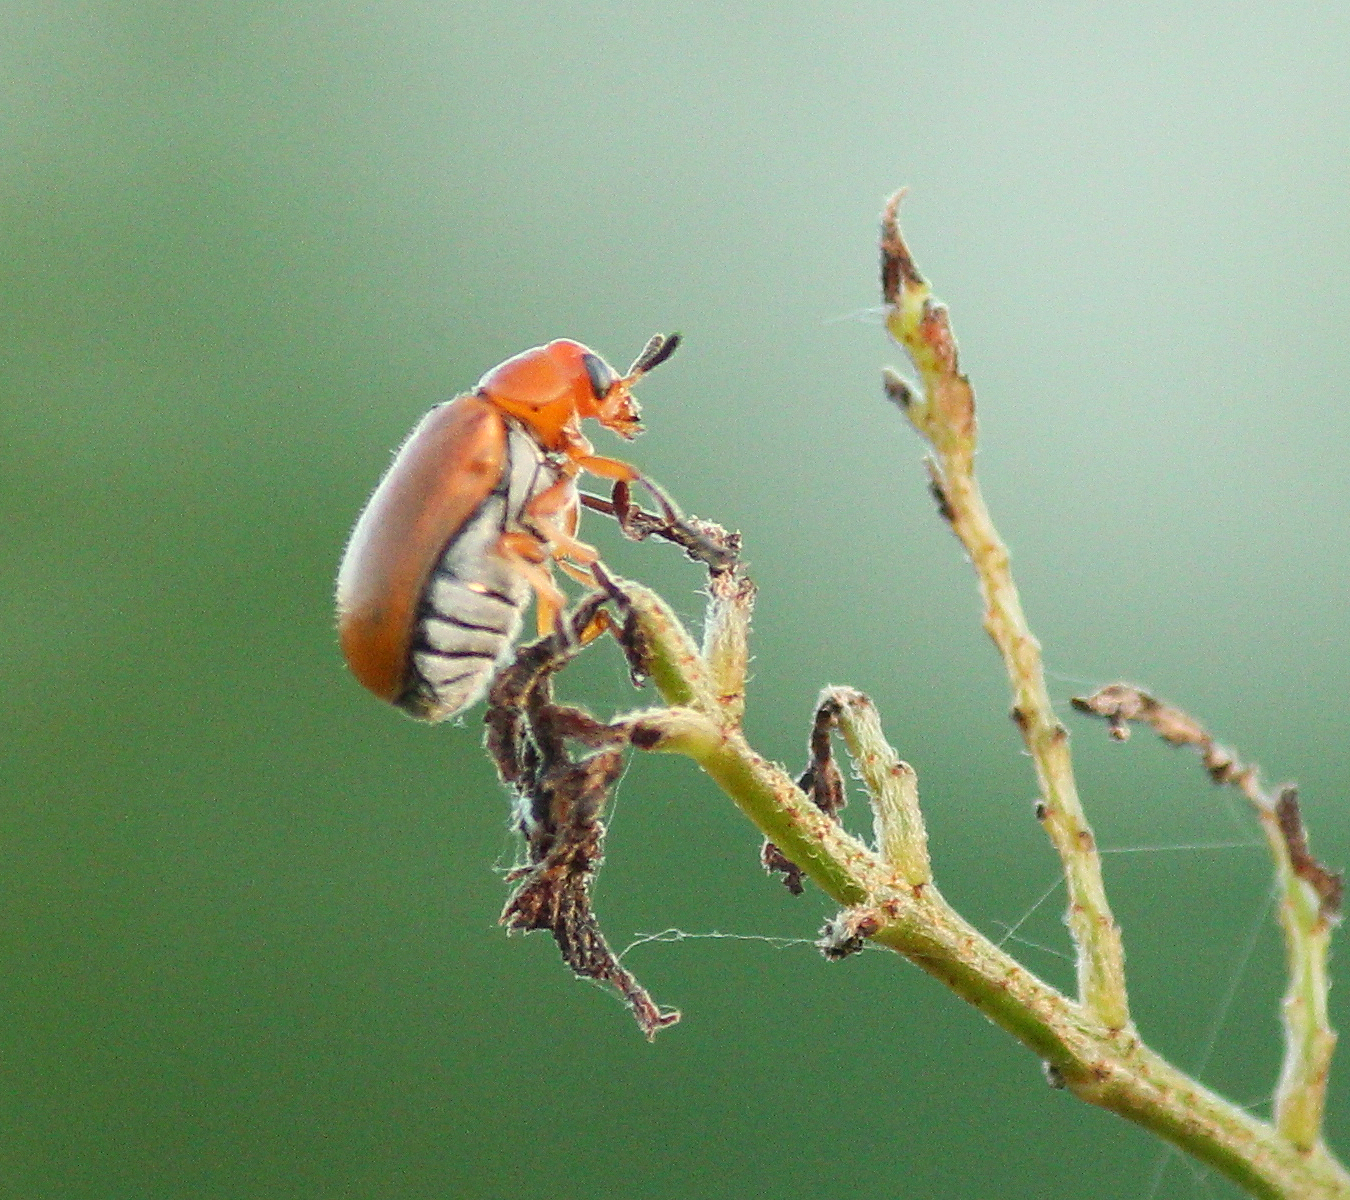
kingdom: Animalia
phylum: Arthropoda
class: Insecta
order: Coleoptera
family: Chrysomelidae
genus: Anomoea
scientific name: Anomoea laticlavia
